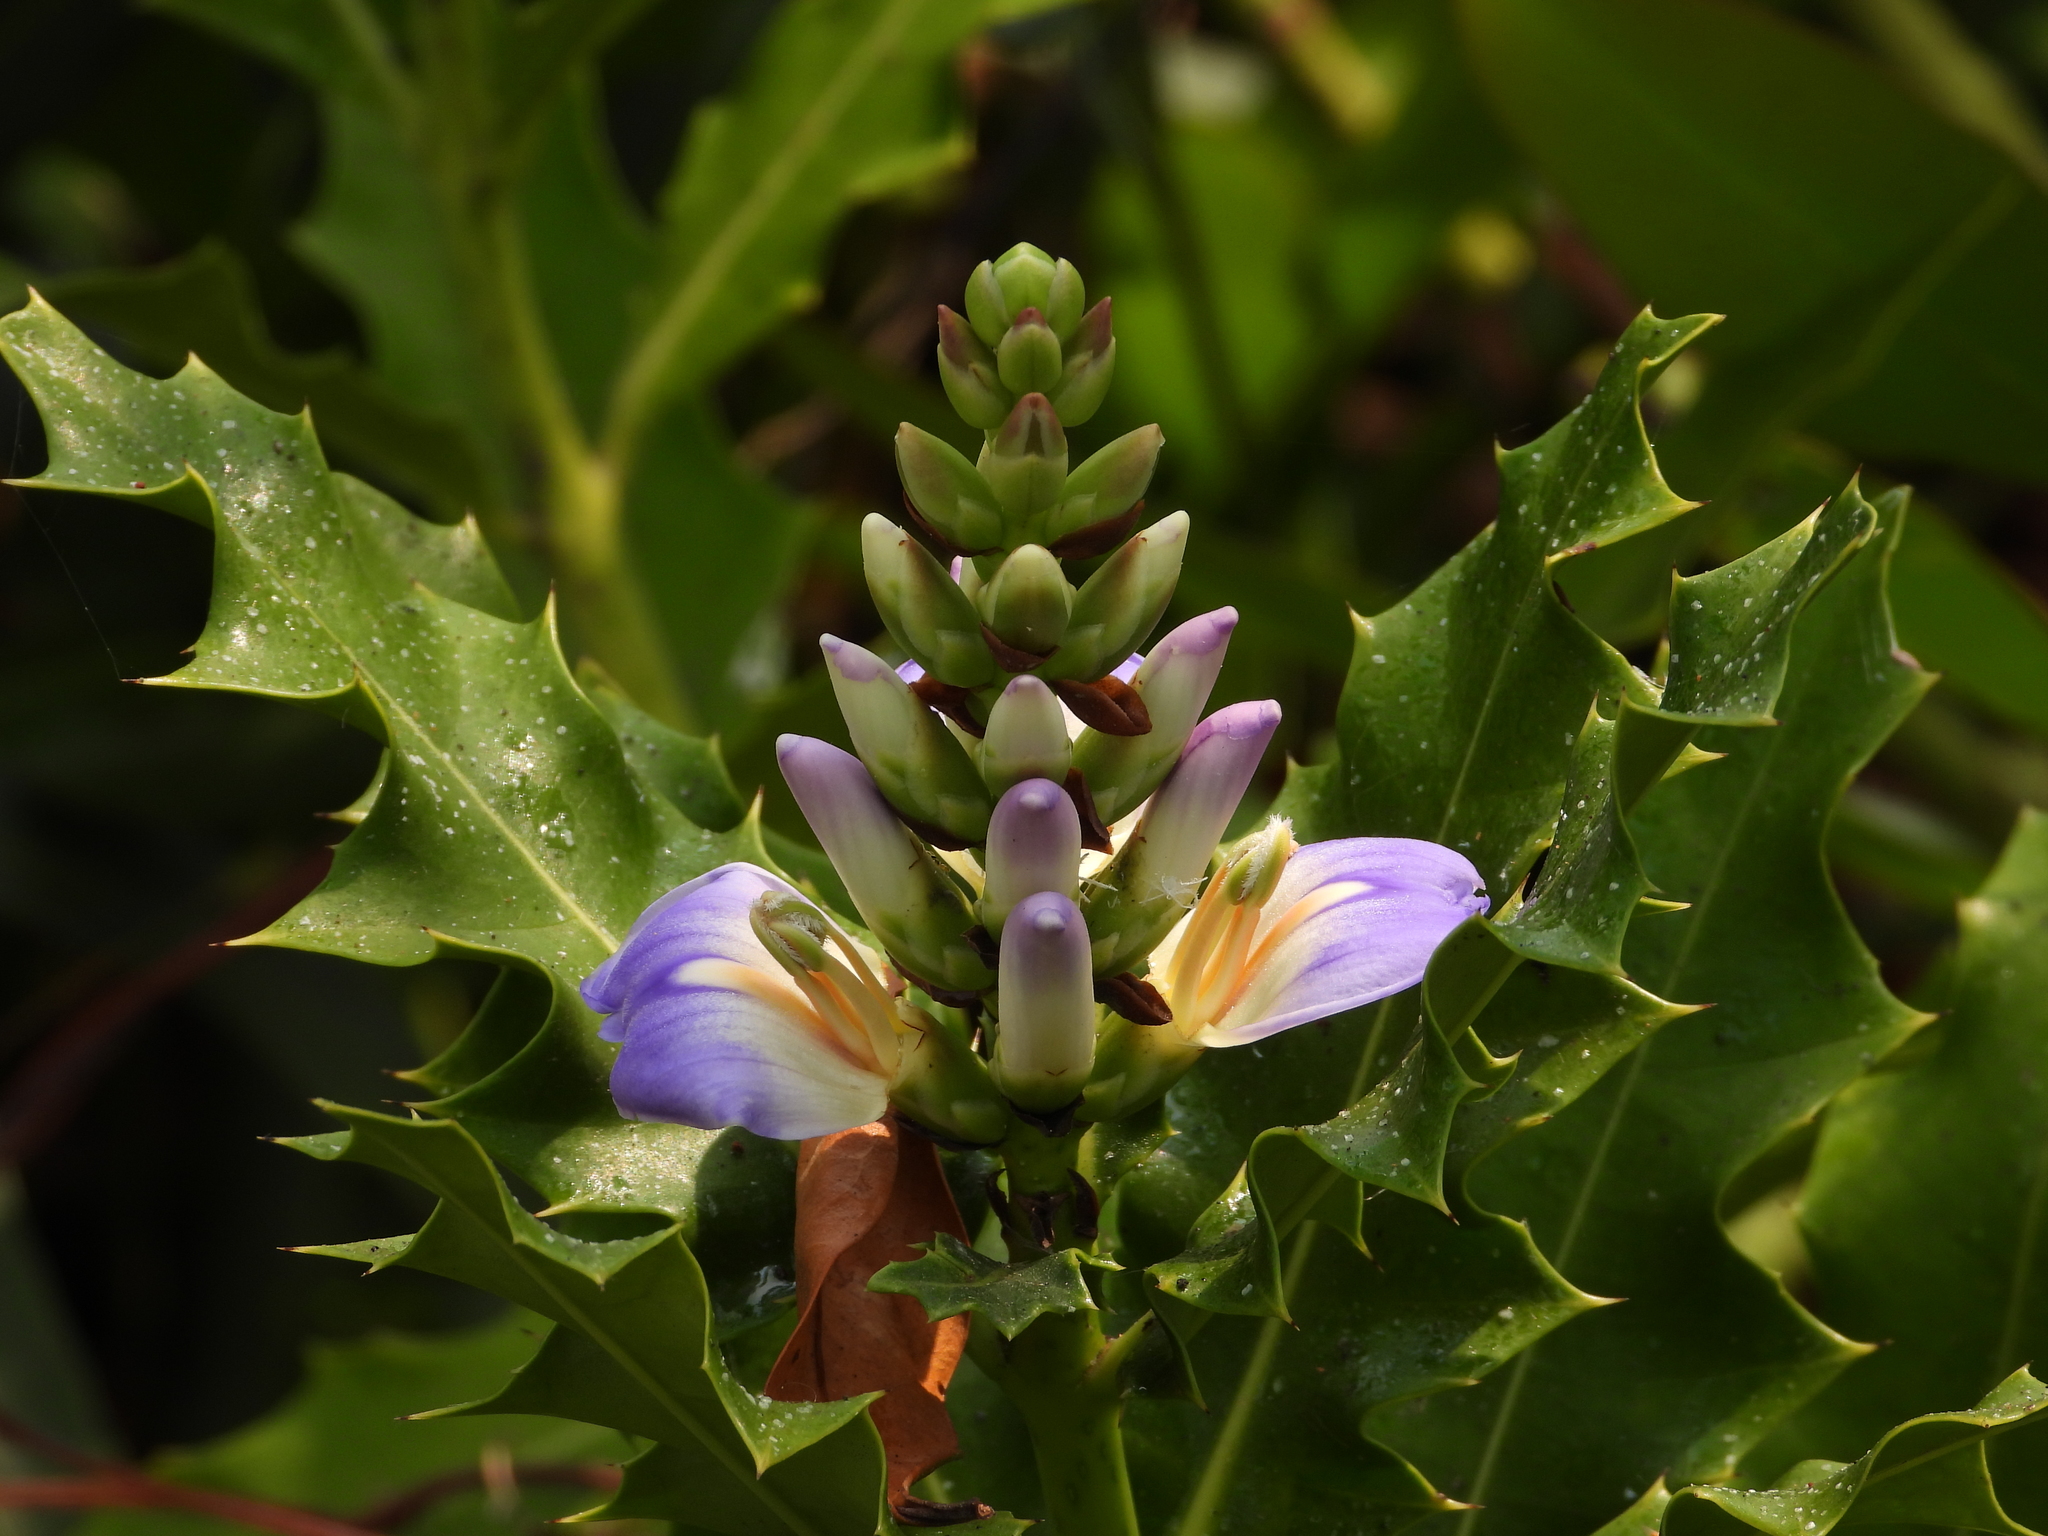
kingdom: Plantae
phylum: Tracheophyta
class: Magnoliopsida
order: Lamiales
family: Acanthaceae
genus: Acanthus
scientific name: Acanthus ilicifolius
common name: Holy mangrove
